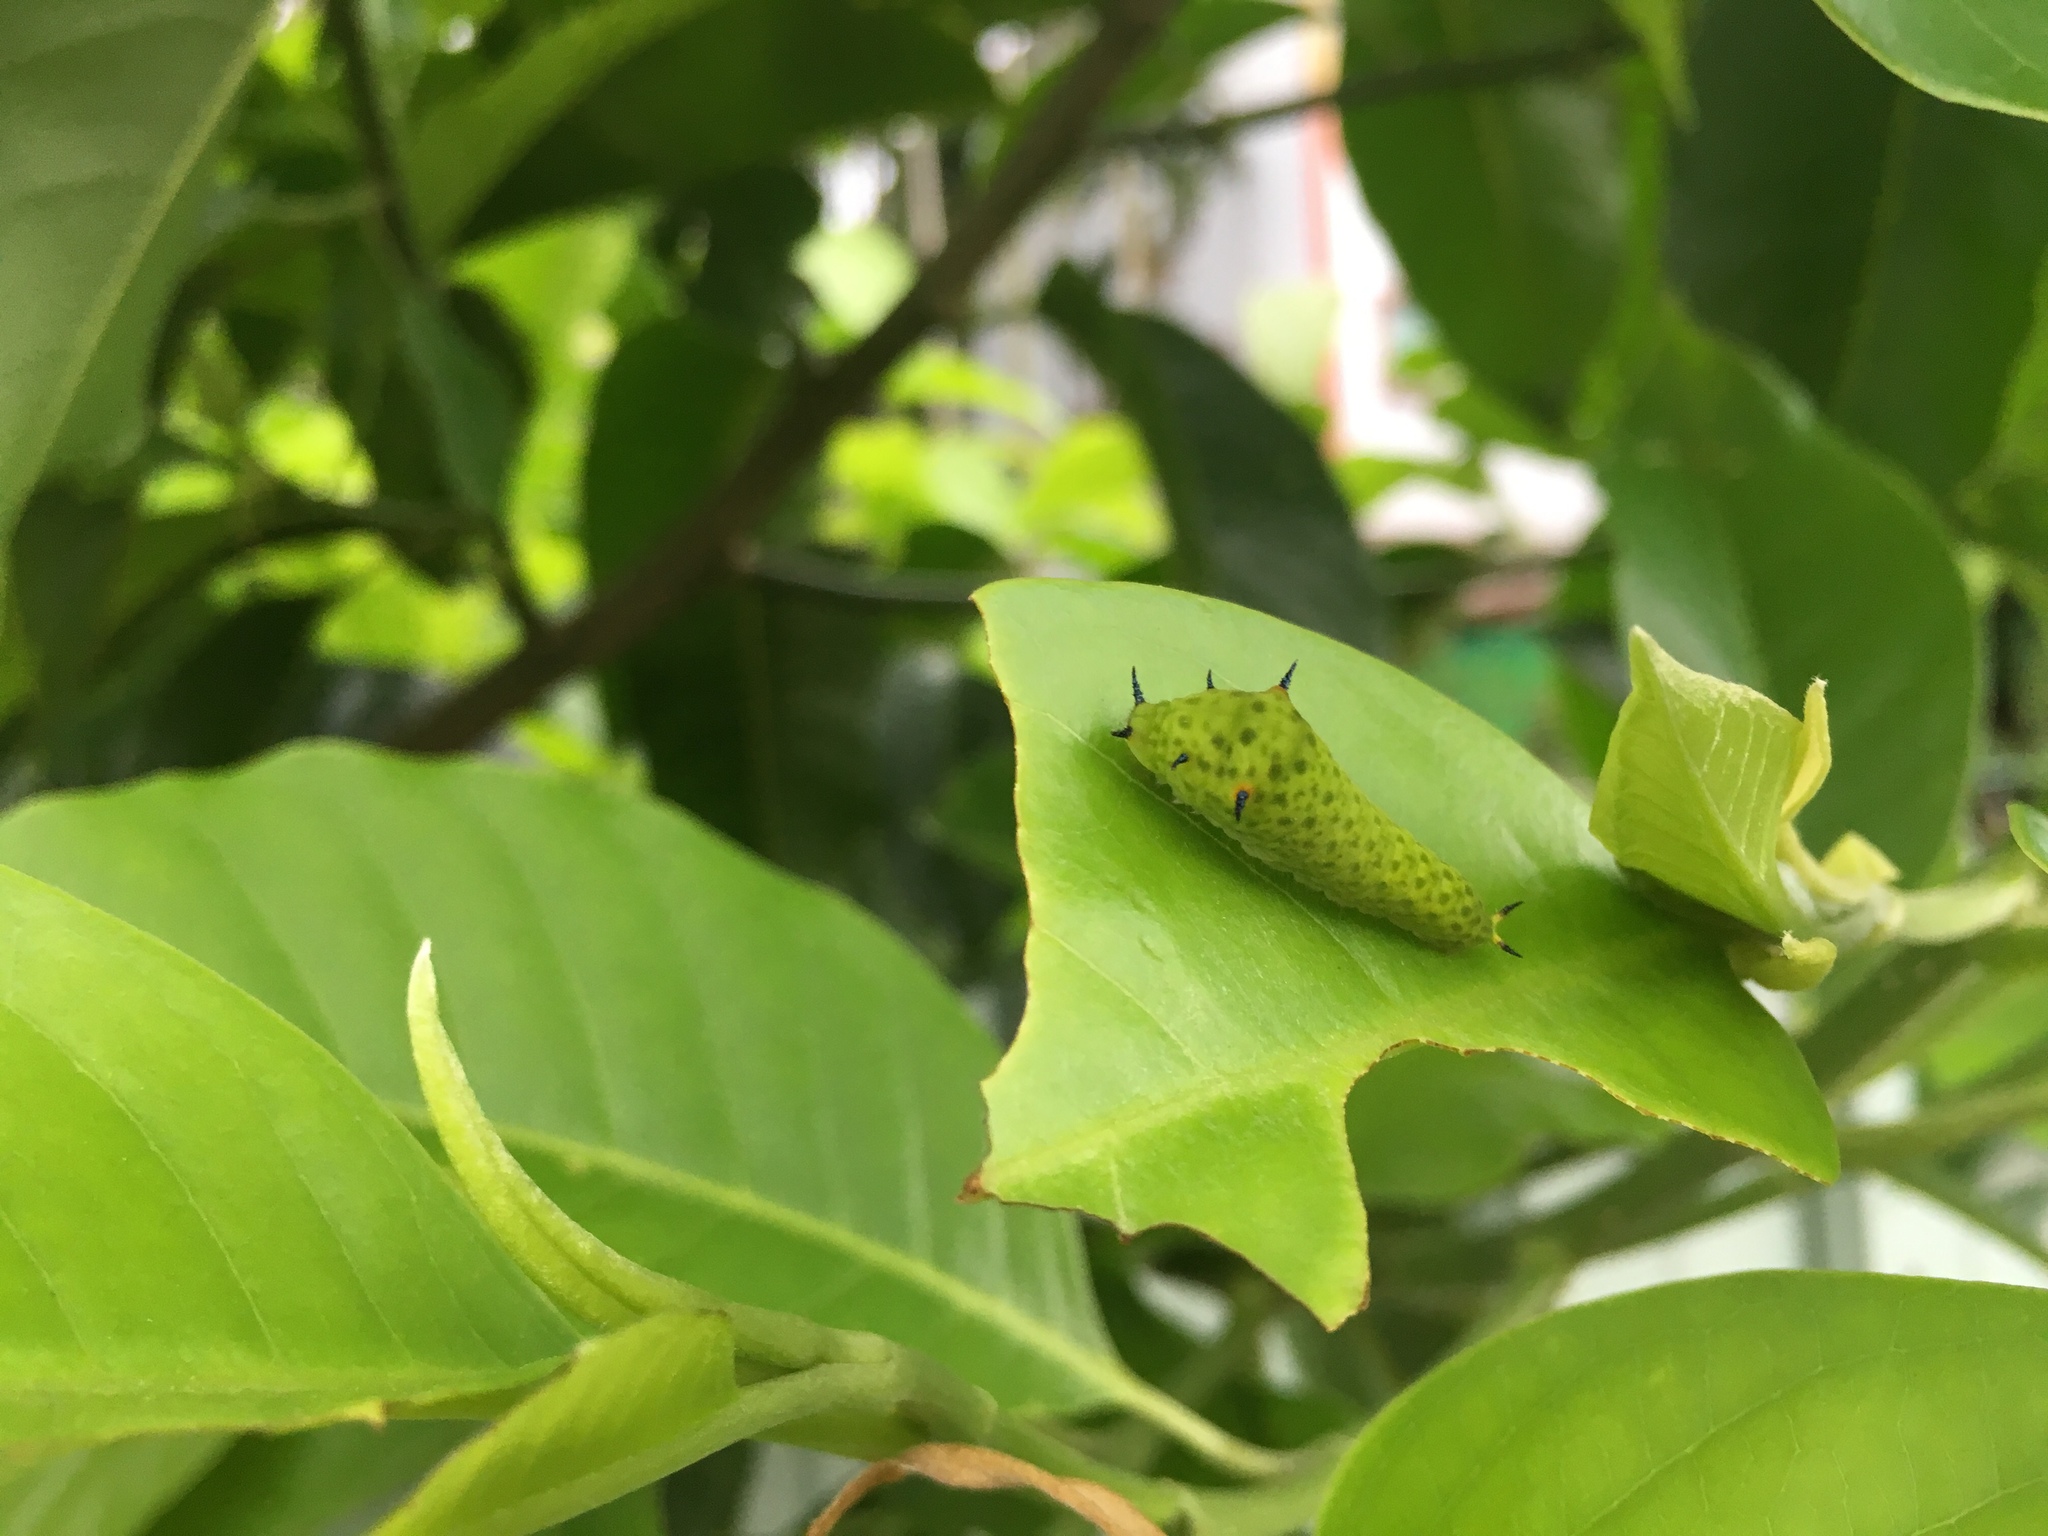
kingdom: Animalia
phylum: Arthropoda
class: Insecta
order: Lepidoptera
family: Papilionidae
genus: Graphium
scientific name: Graphium agamemnon
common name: Tailed jay
